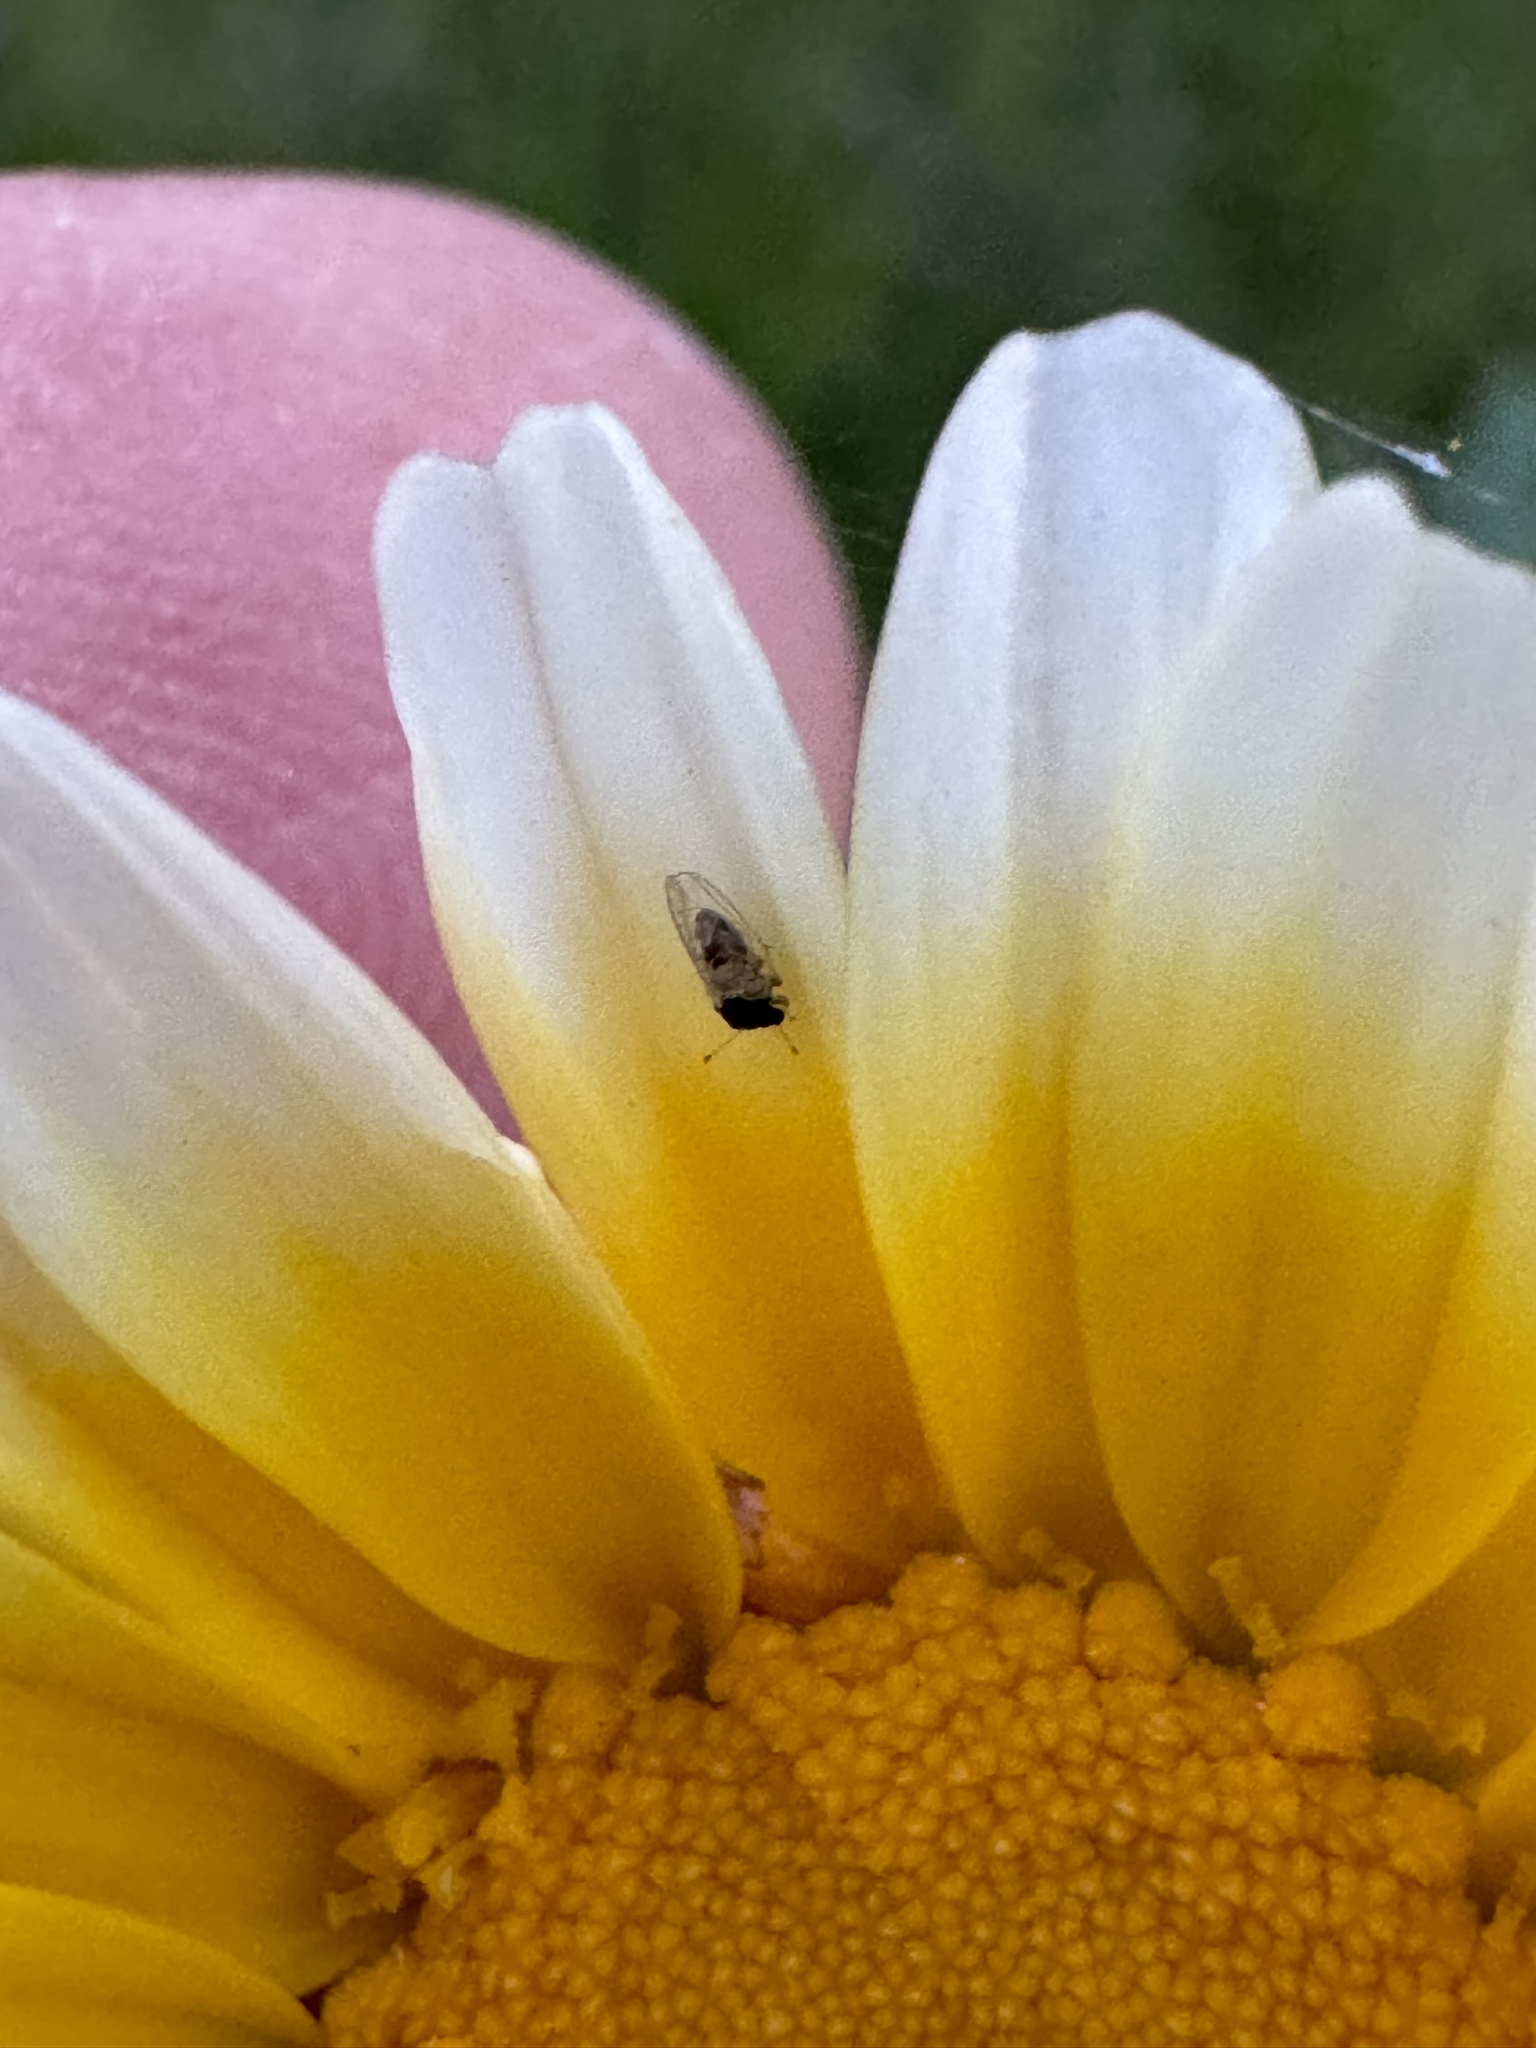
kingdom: Plantae
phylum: Tracheophyta
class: Magnoliopsida
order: Asterales
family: Asteraceae
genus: Glebionis
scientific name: Glebionis coronaria
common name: Crowndaisy
